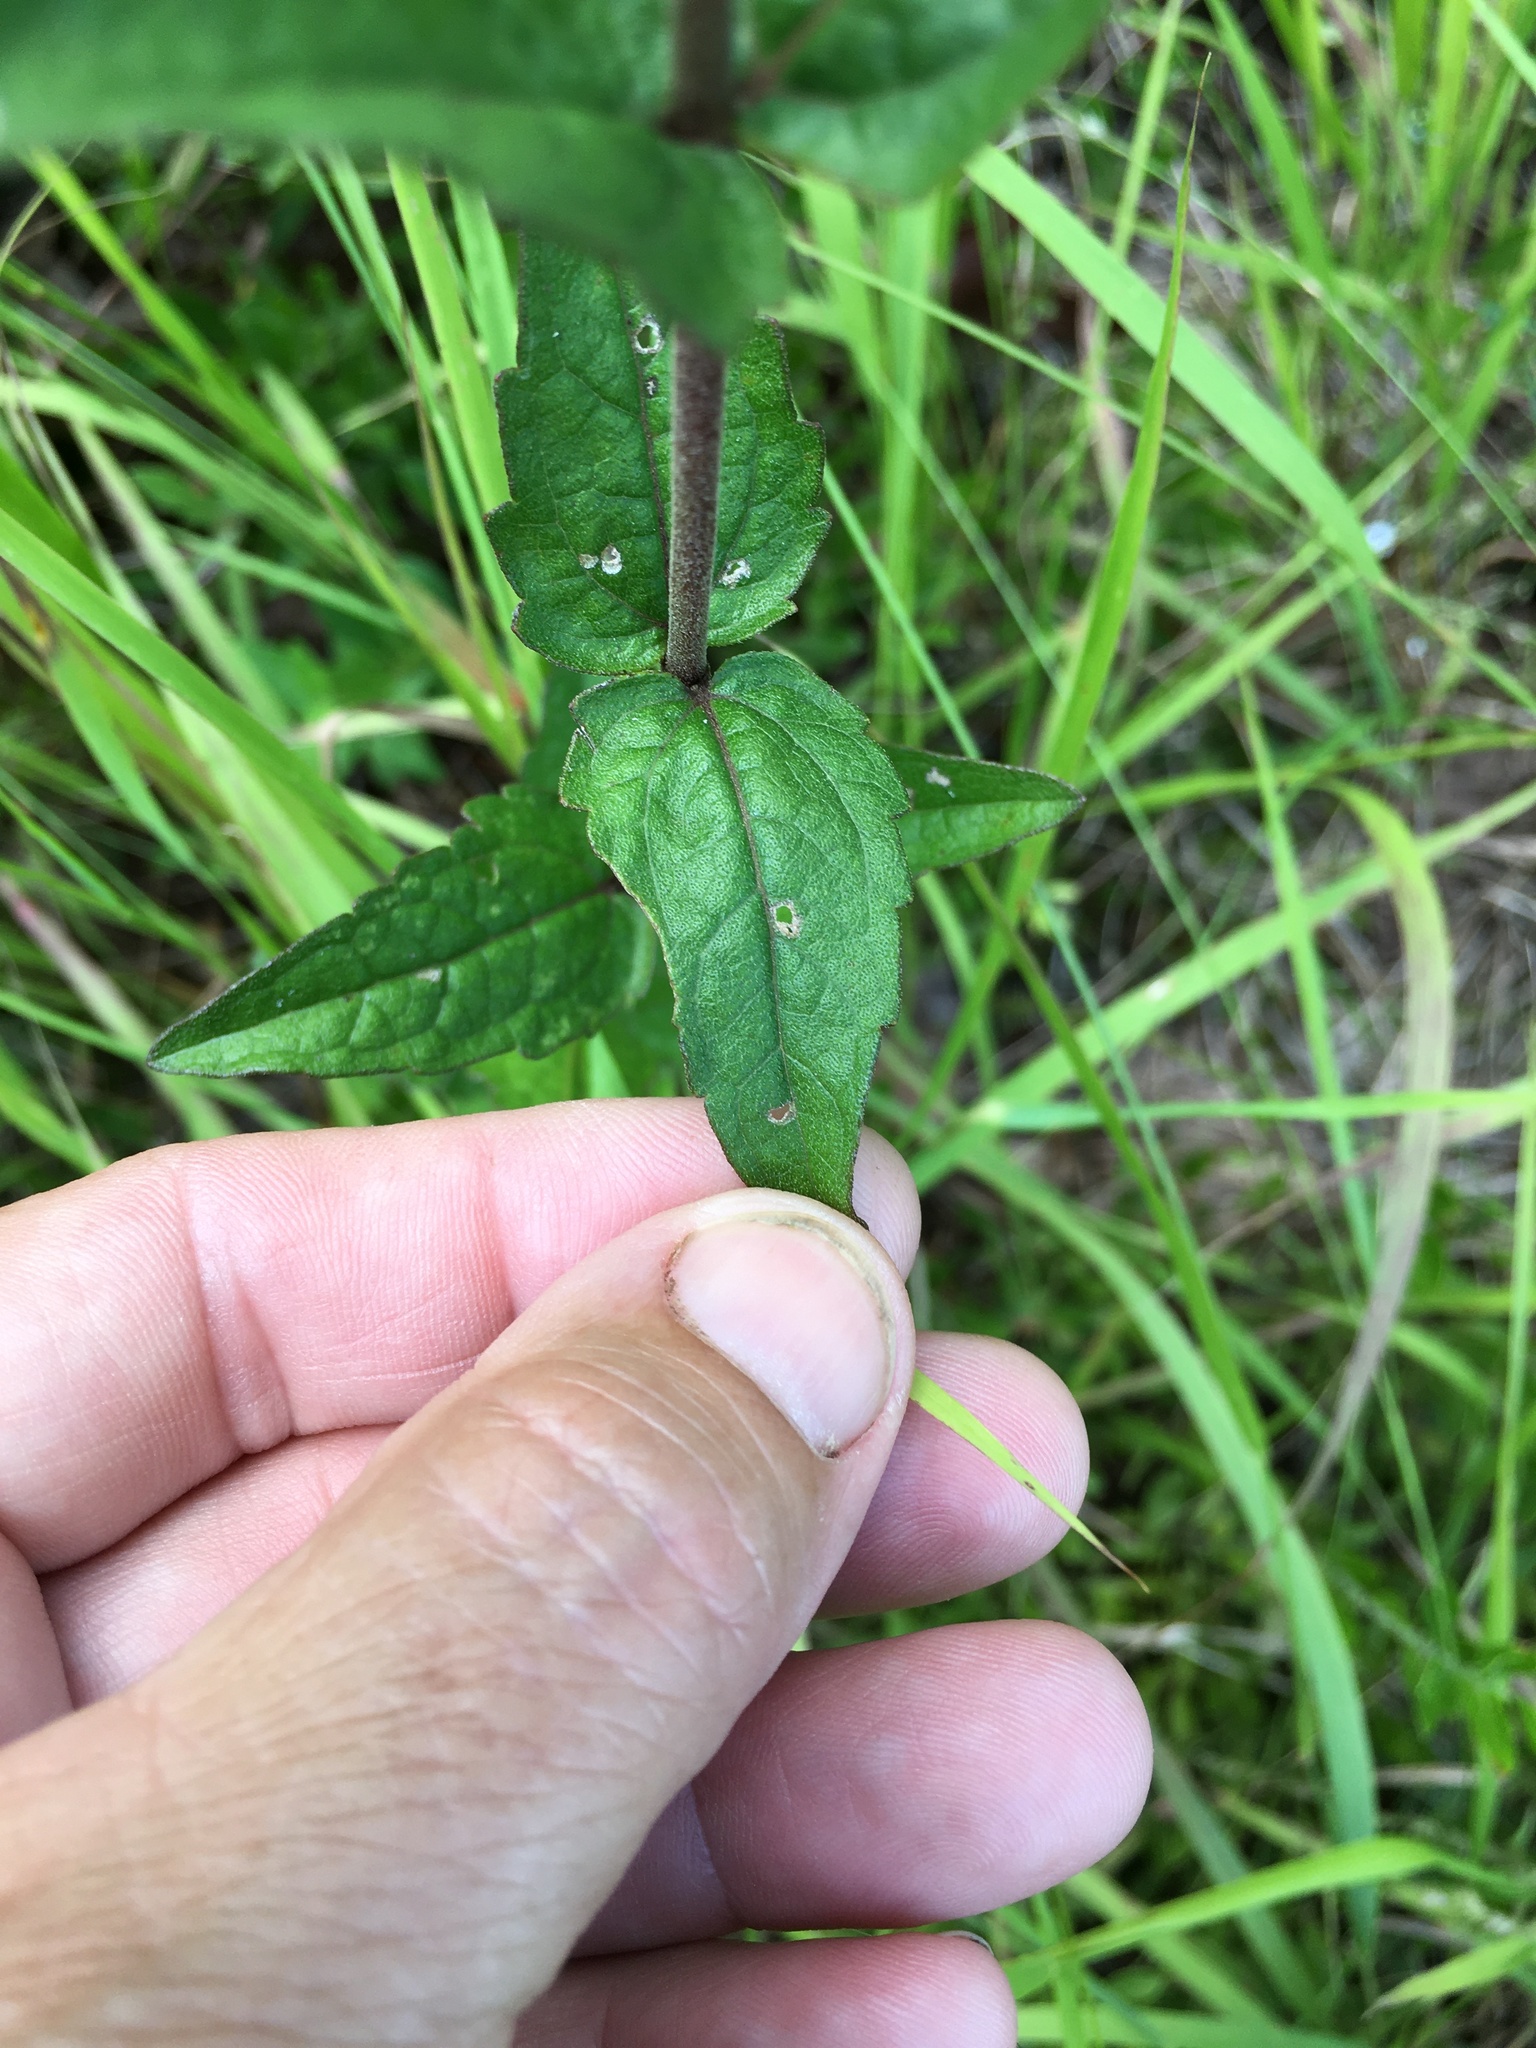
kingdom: Plantae
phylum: Tracheophyta
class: Magnoliopsida
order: Asterales
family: Asteraceae
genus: Eupatorium
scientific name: Eupatorium pilosum
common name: Rough boneset
